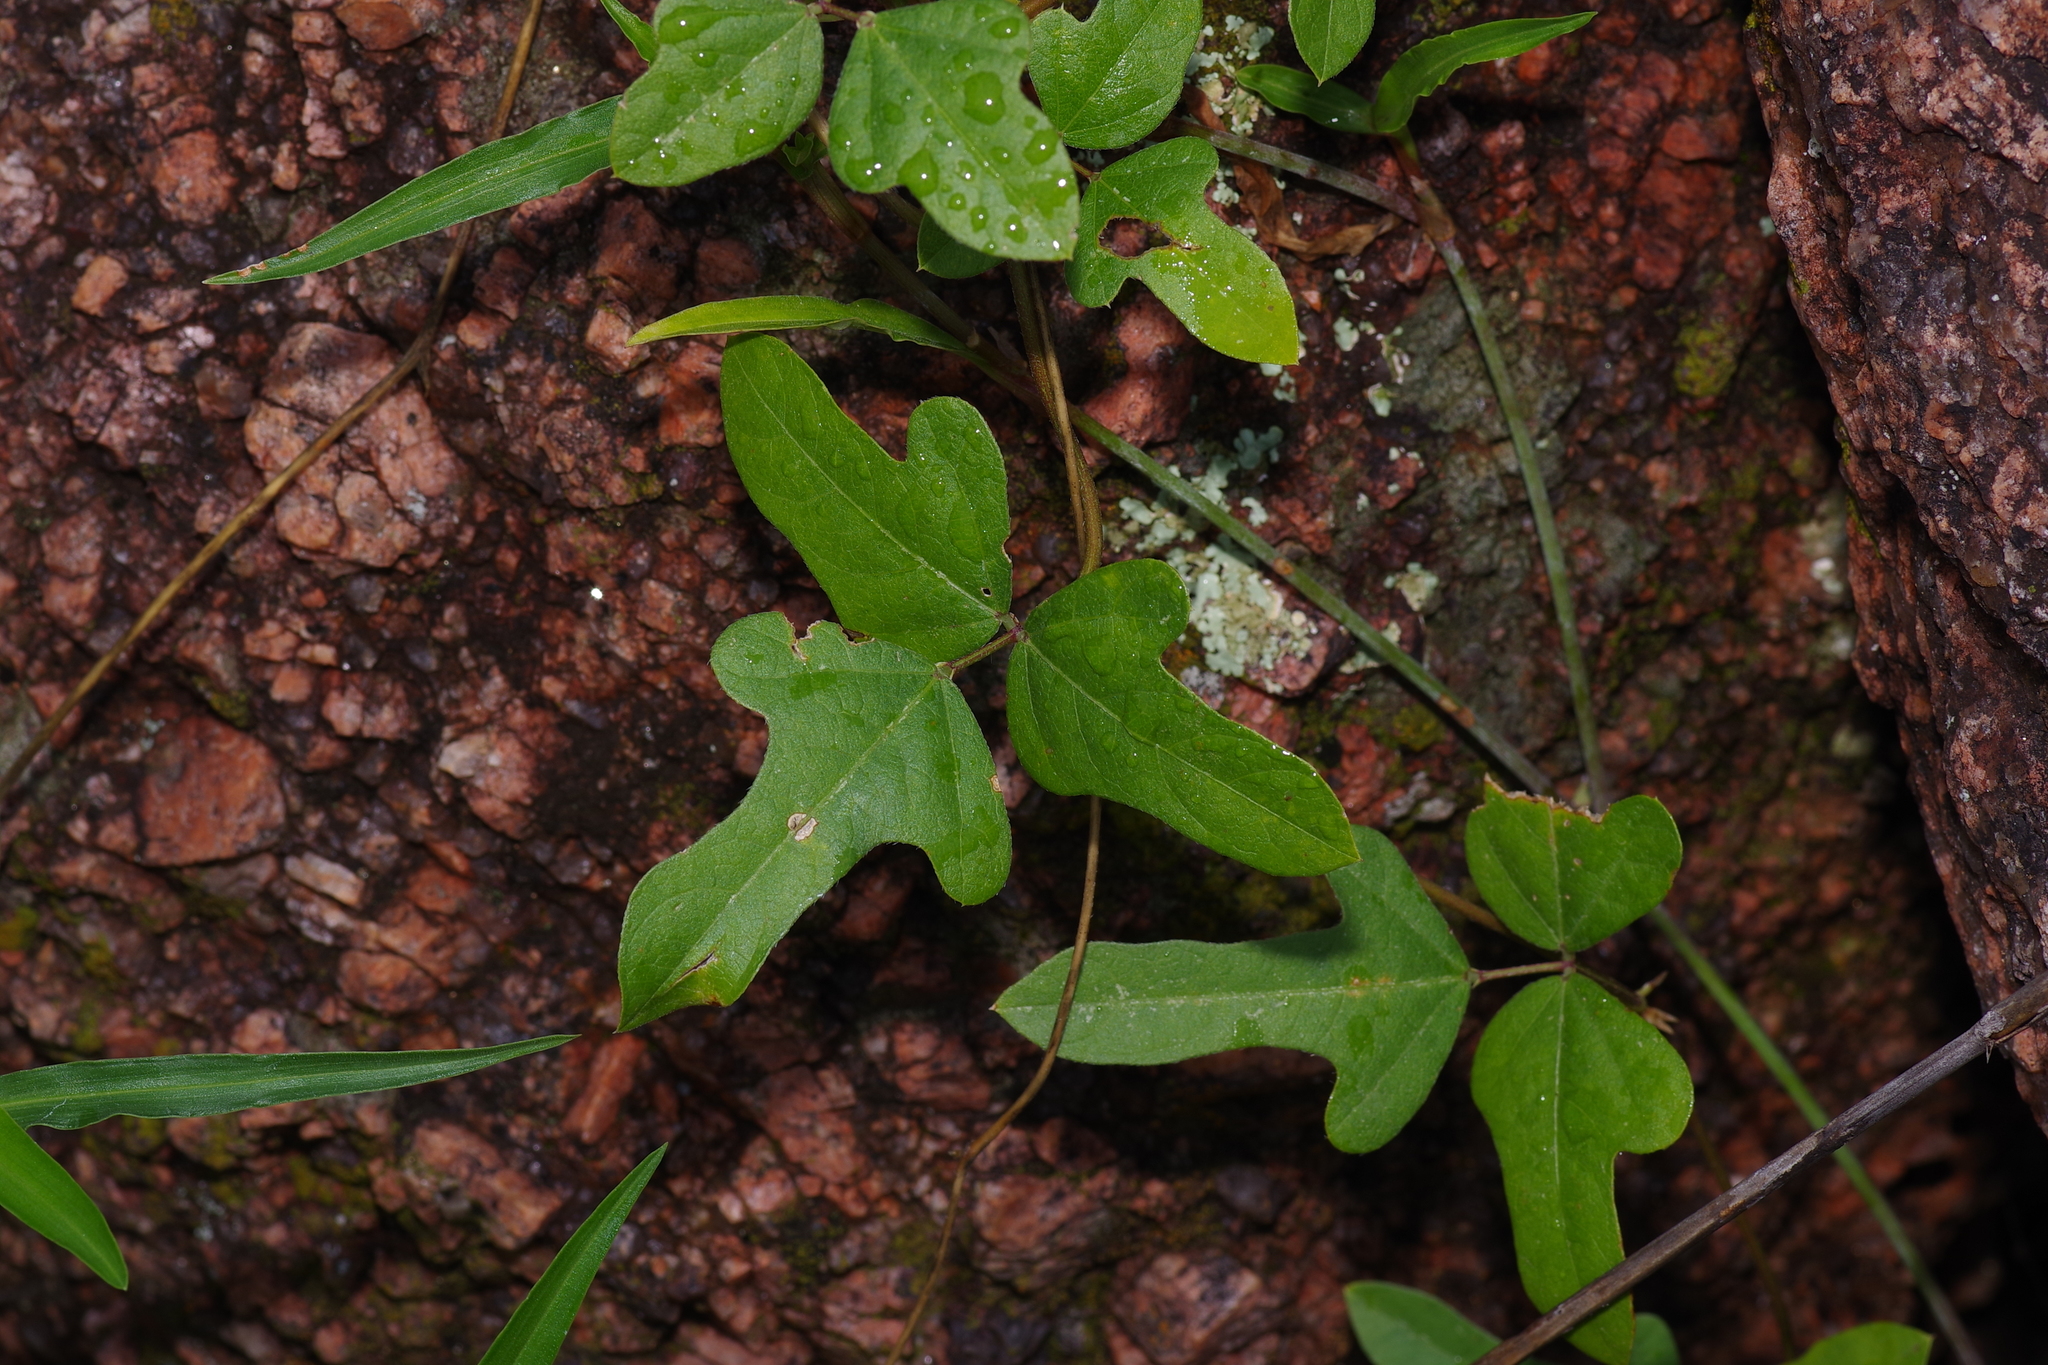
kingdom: Plantae
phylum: Tracheophyta
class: Magnoliopsida
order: Fabales
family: Fabaceae
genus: Strophostyles
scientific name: Strophostyles helvola
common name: Trailing wild bean
